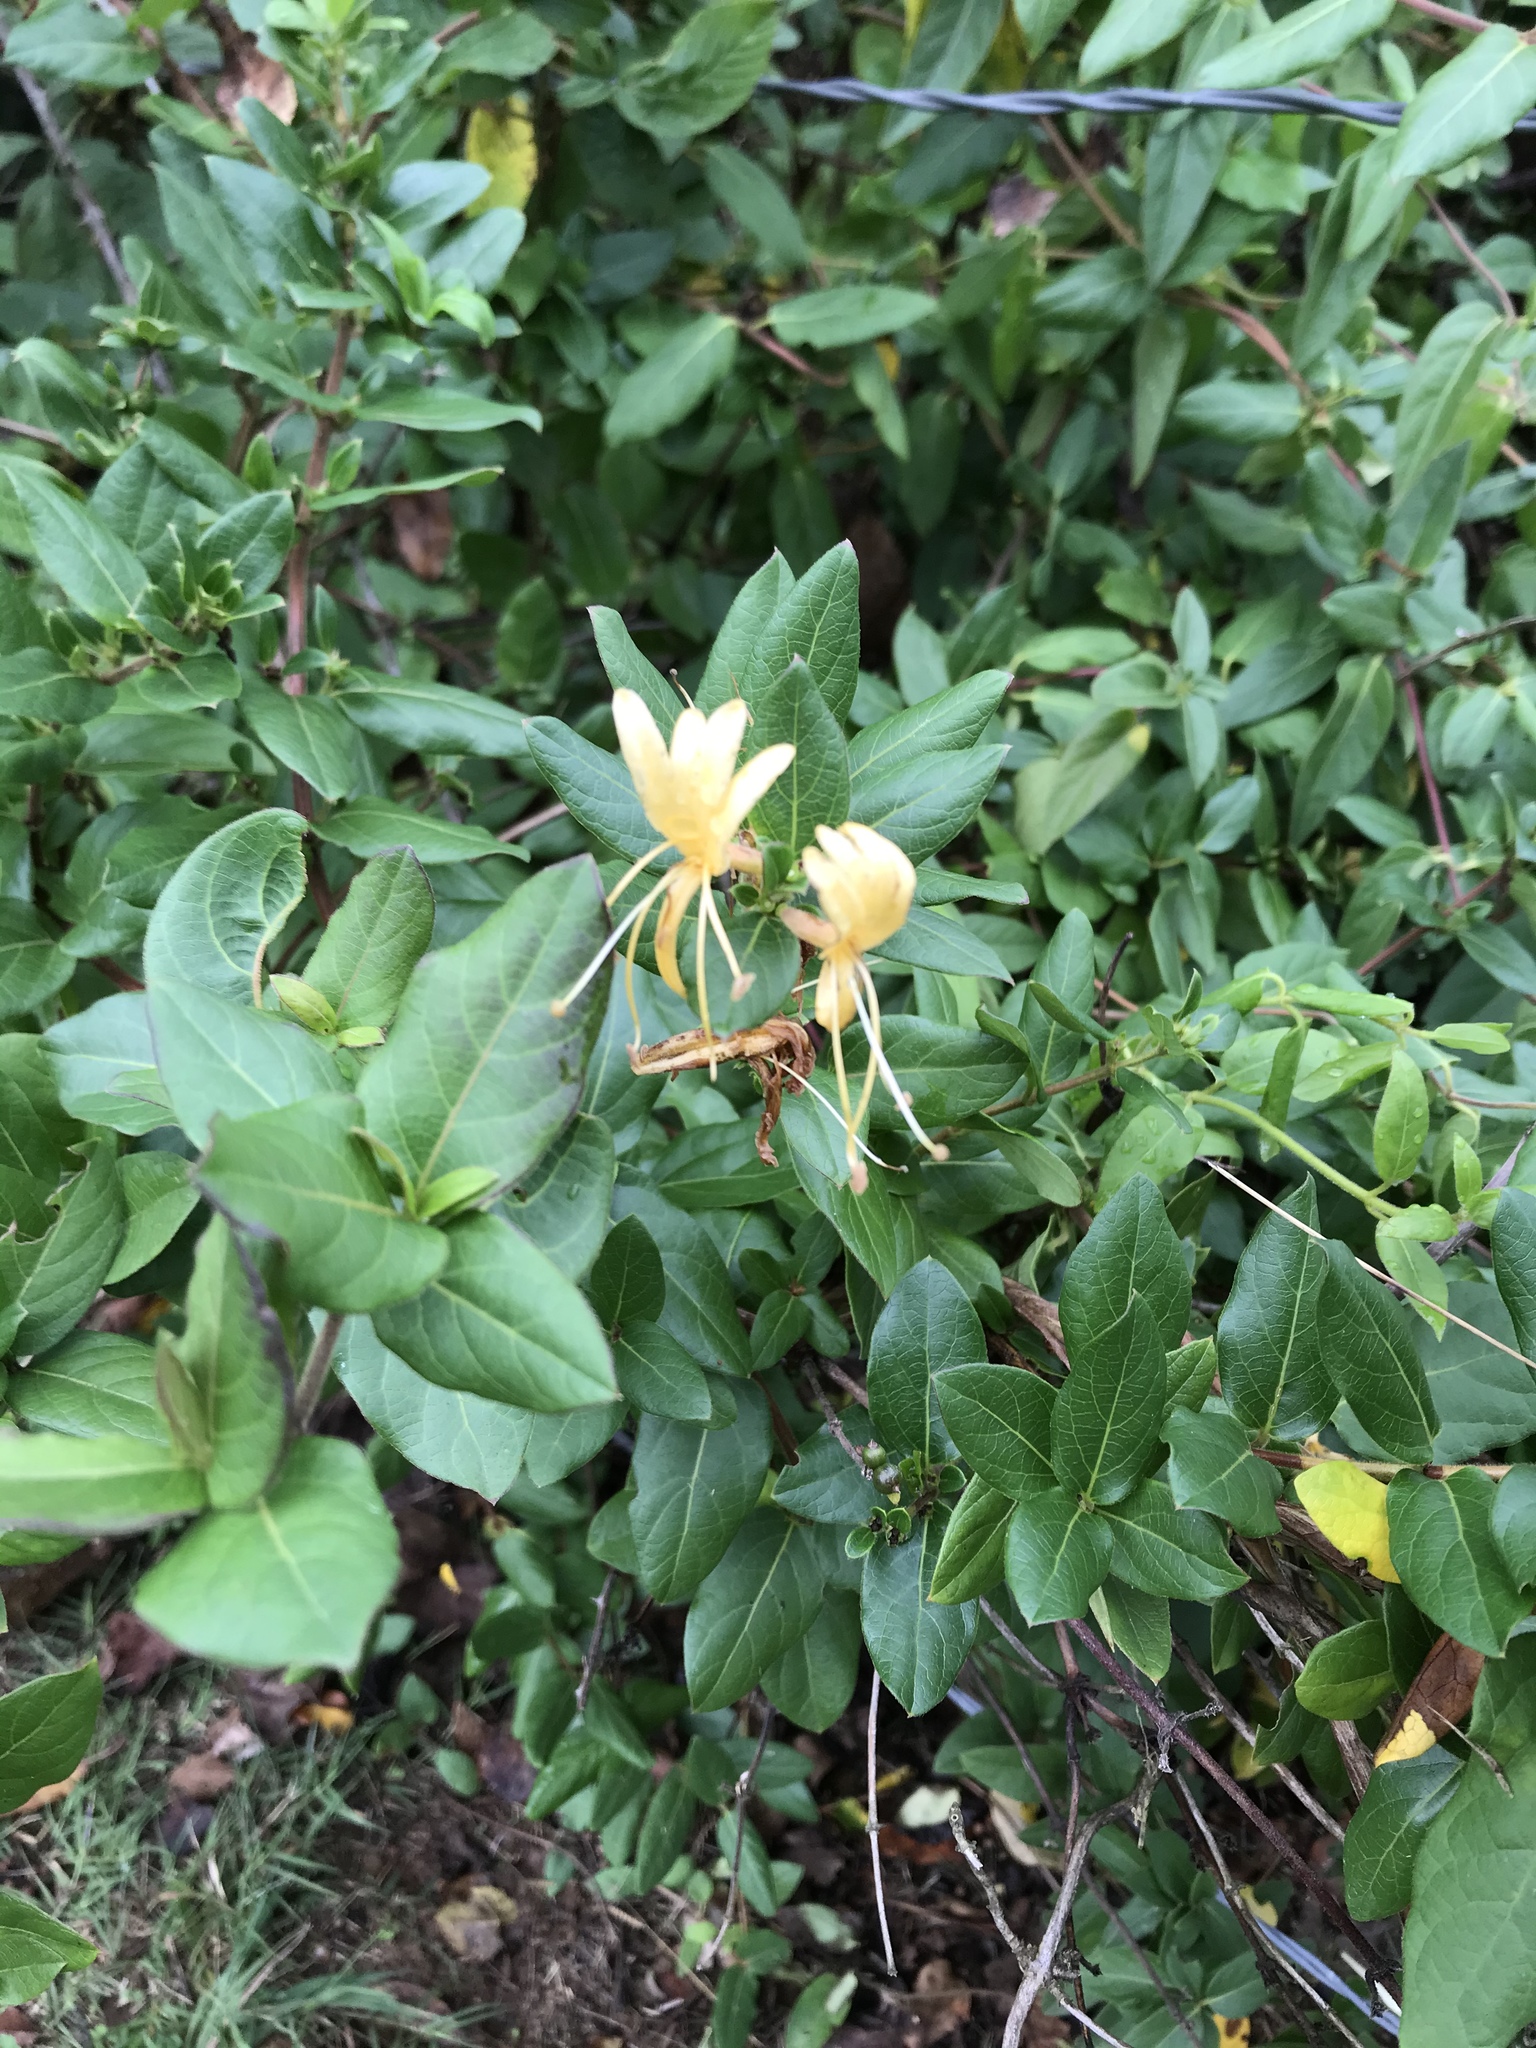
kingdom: Plantae
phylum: Tracheophyta
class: Magnoliopsida
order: Dipsacales
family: Caprifoliaceae
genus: Lonicera
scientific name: Lonicera japonica
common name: Japanese honeysuckle
